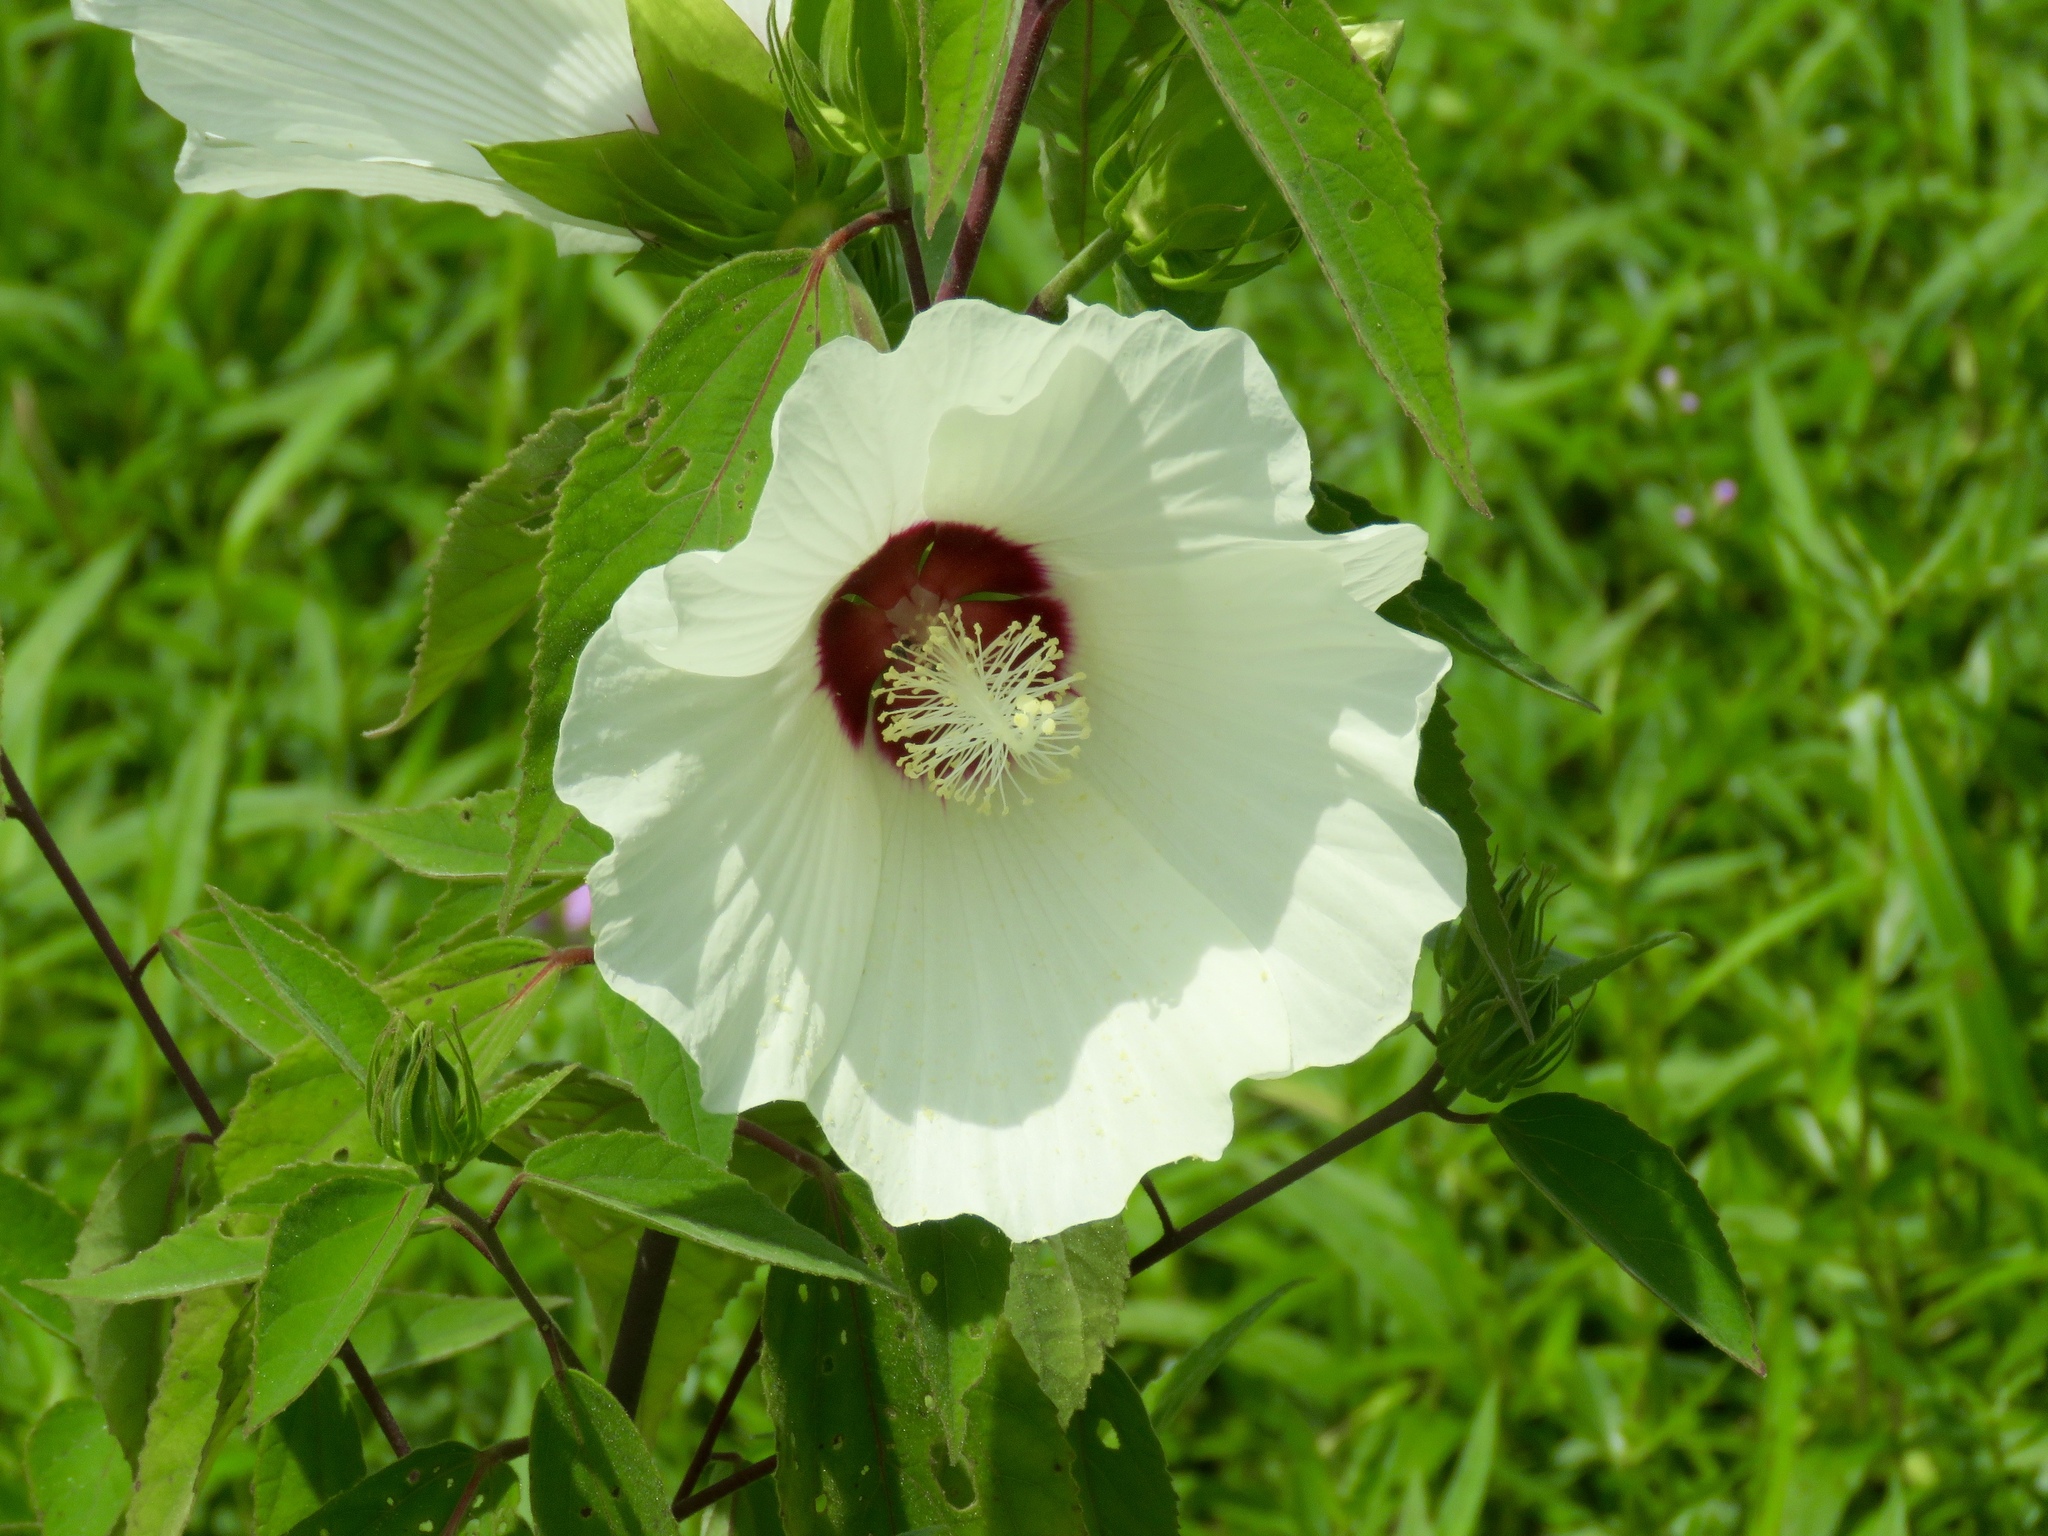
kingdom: Plantae
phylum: Tracheophyta
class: Magnoliopsida
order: Malvales
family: Malvaceae
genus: Hibiscus
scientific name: Hibiscus moscheutos
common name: Common rose-mallow
